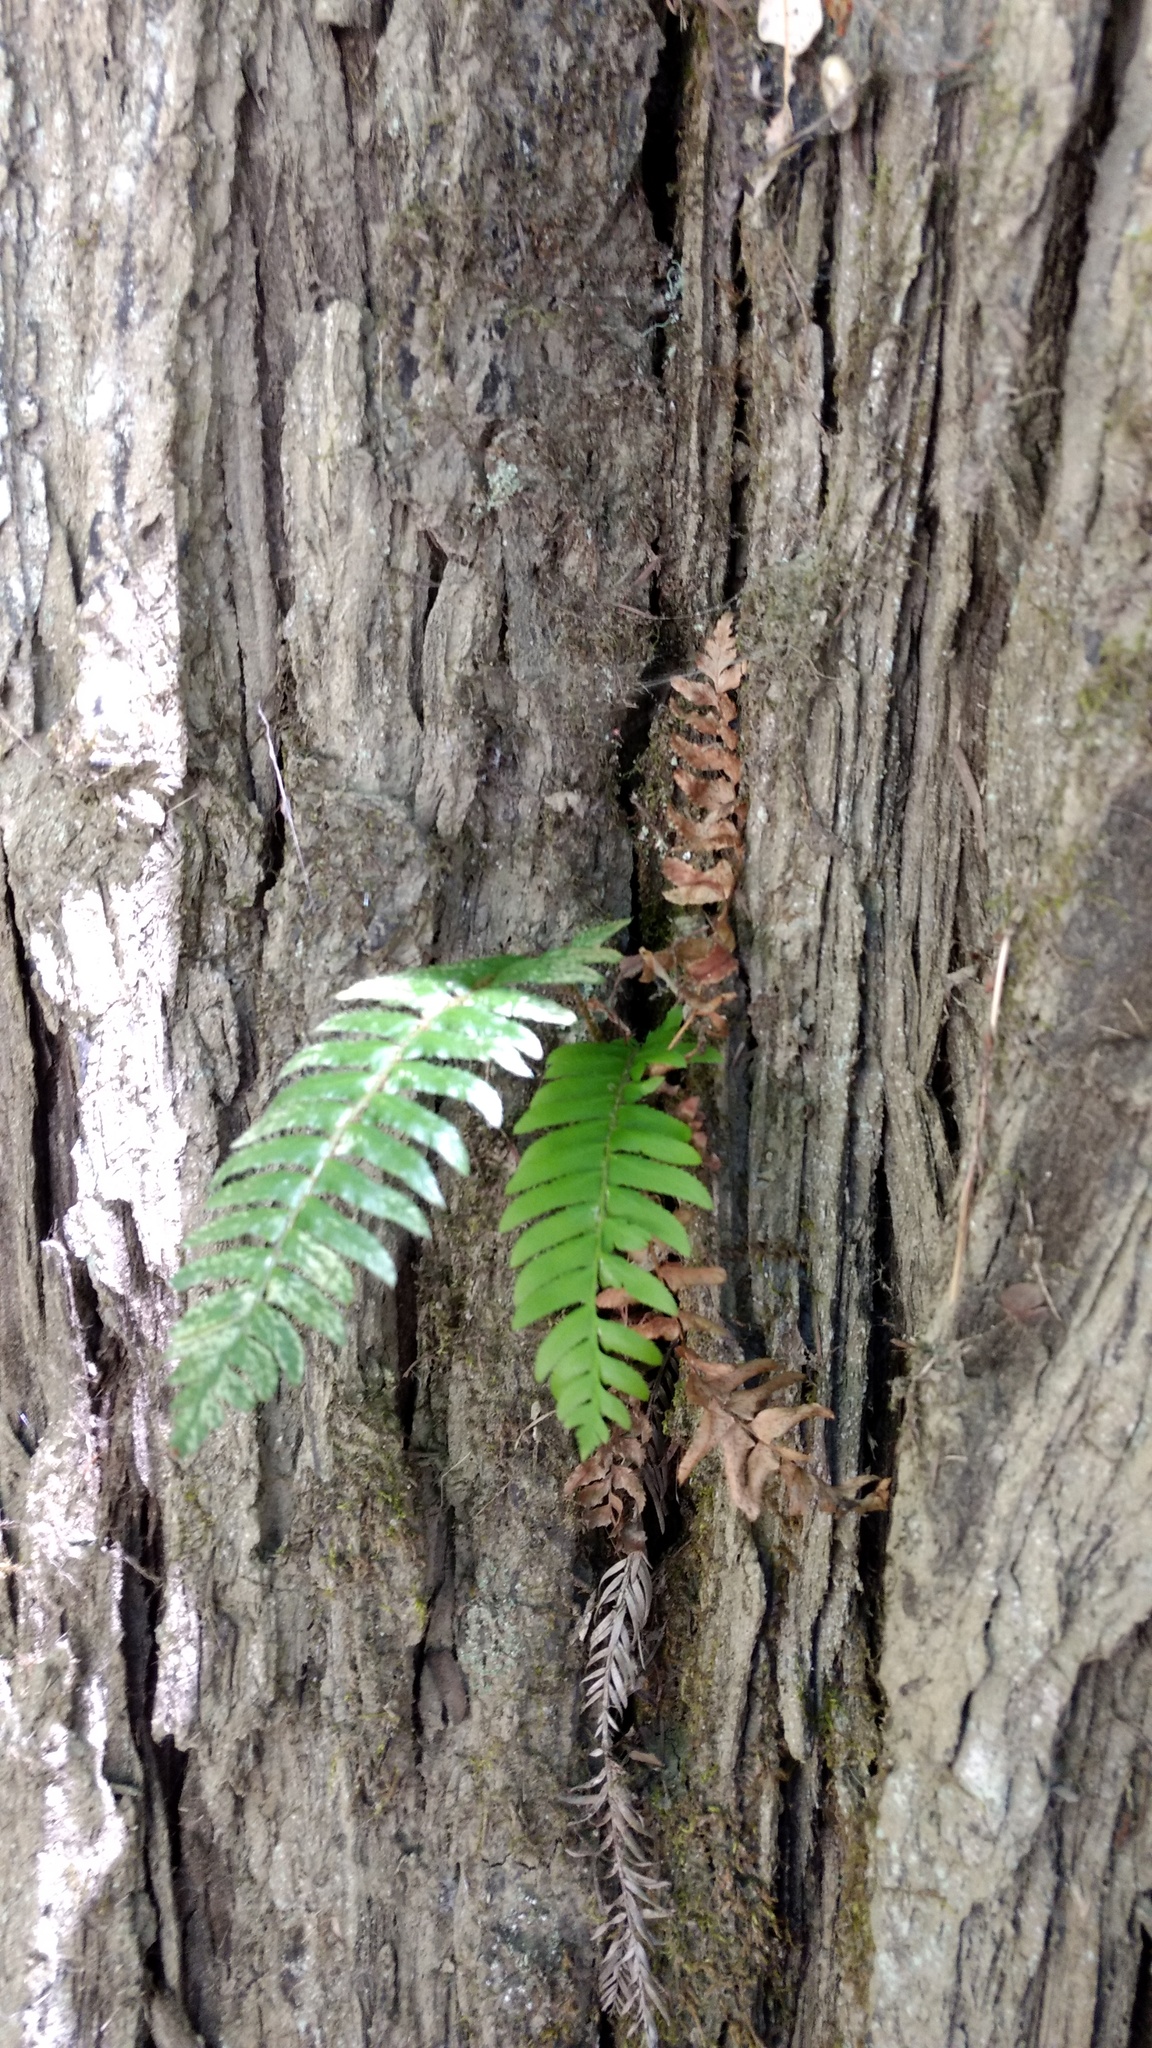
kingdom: Plantae
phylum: Tracheophyta
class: Polypodiopsida
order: Polypodiales
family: Dryopteridaceae
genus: Polystichum
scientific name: Polystichum munitum
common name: Western sword-fern
